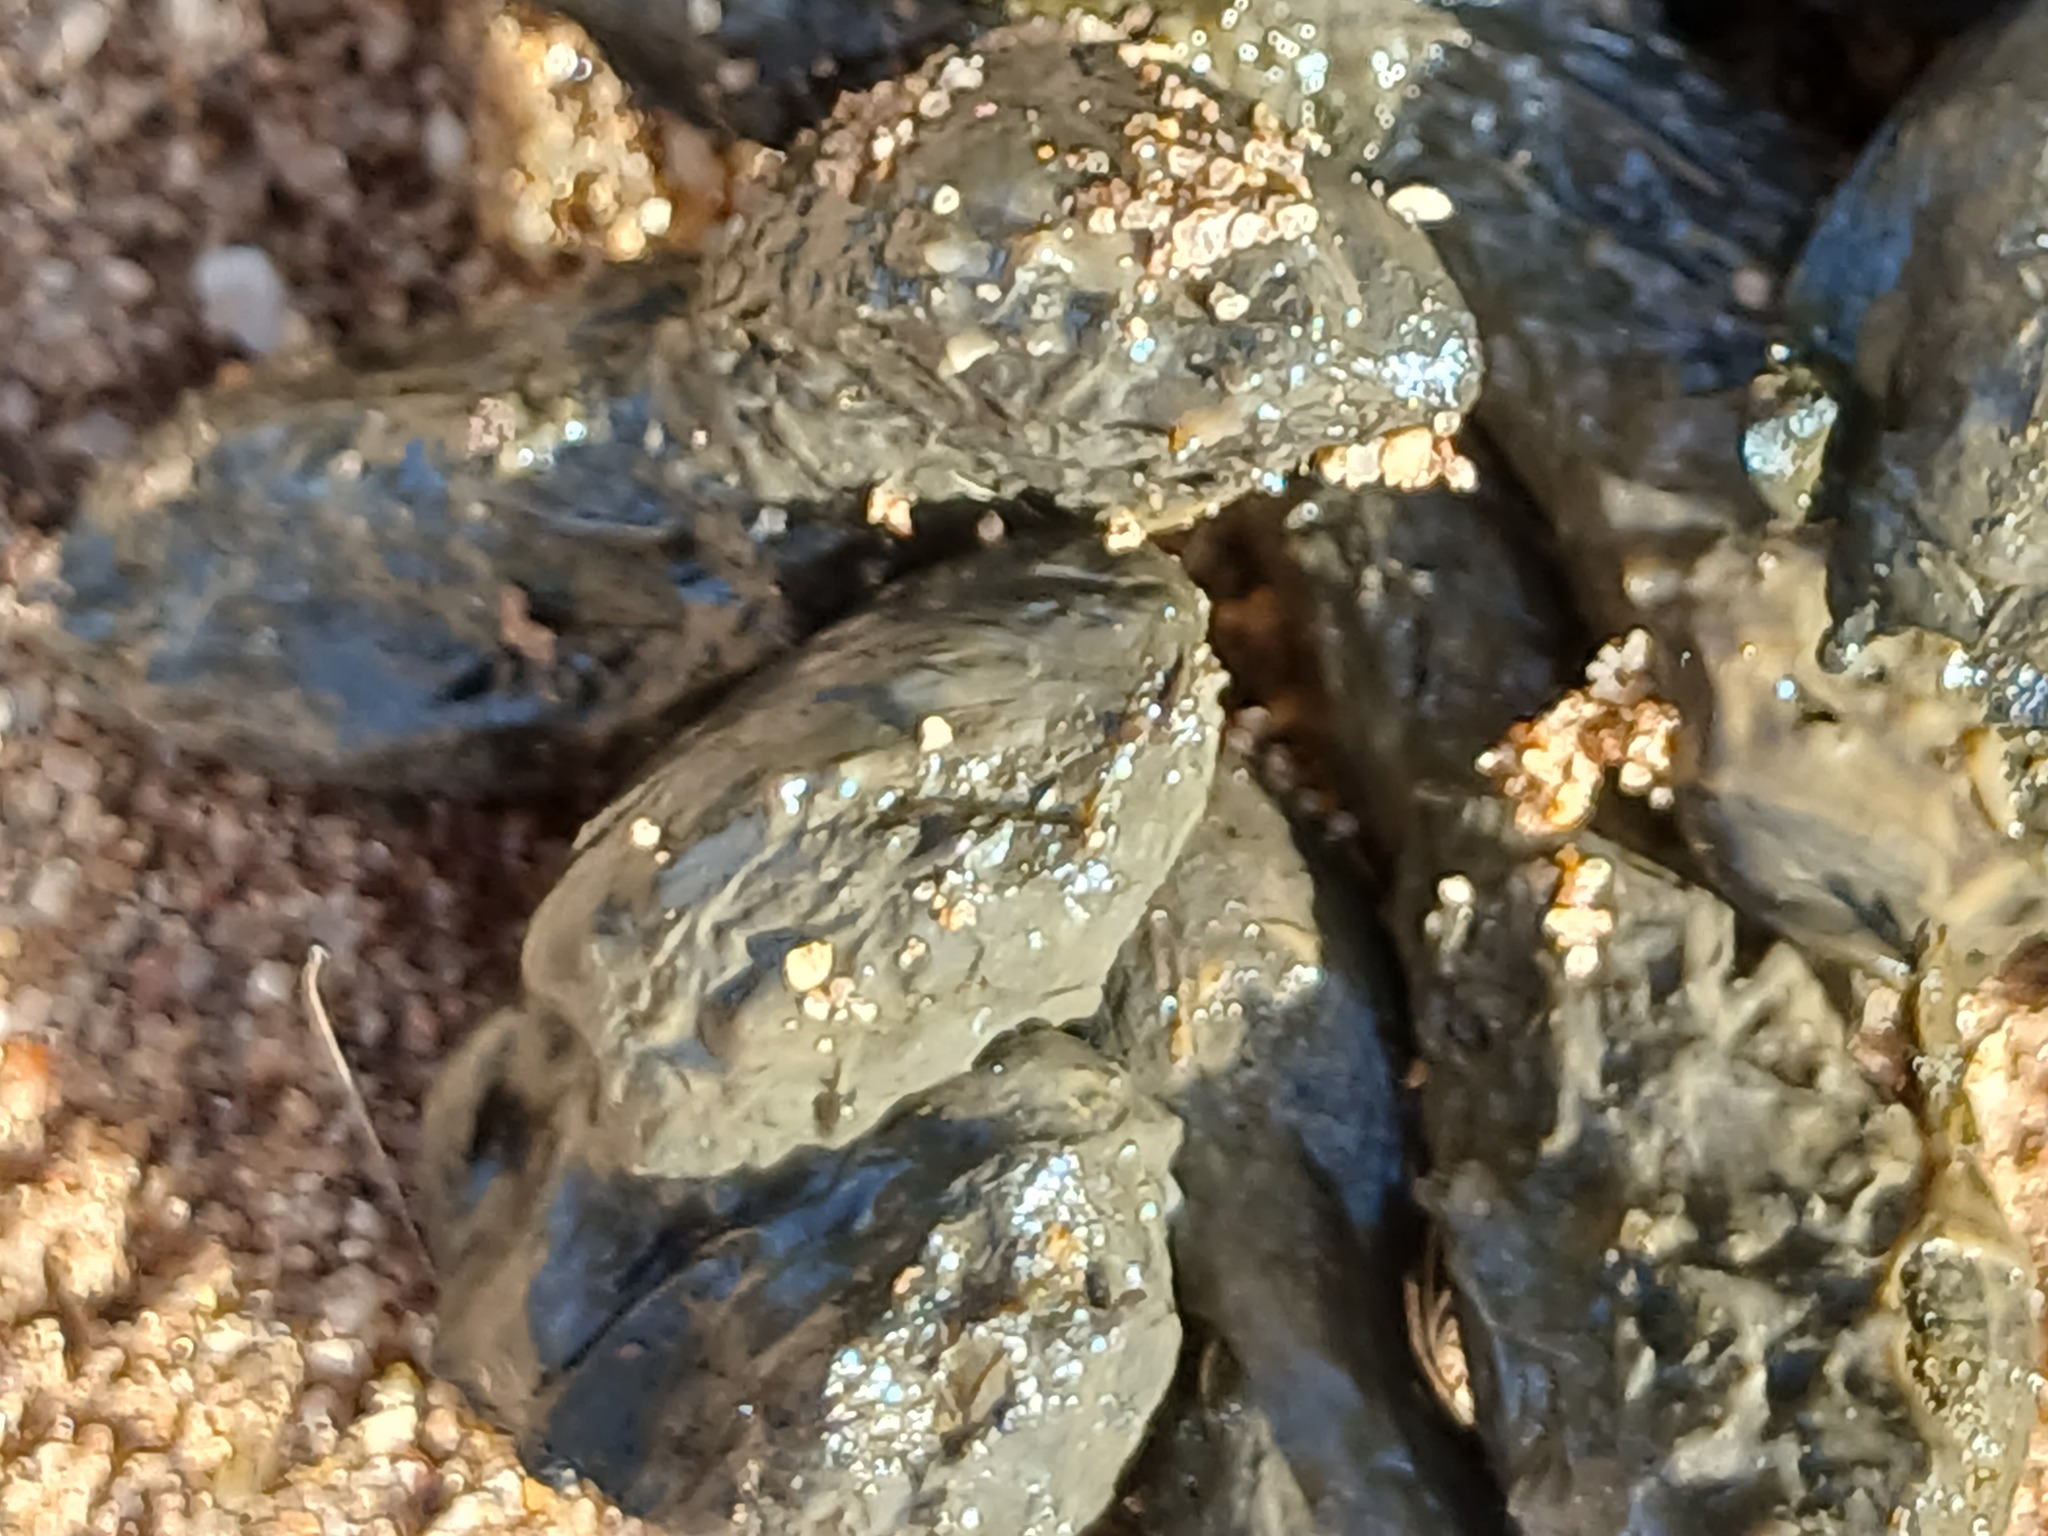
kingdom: Animalia
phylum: Chordata
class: Mammalia
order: Rodentia
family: Hystricidae
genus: Hystrix
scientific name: Hystrix africaeaustralis
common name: Cape porcupine
